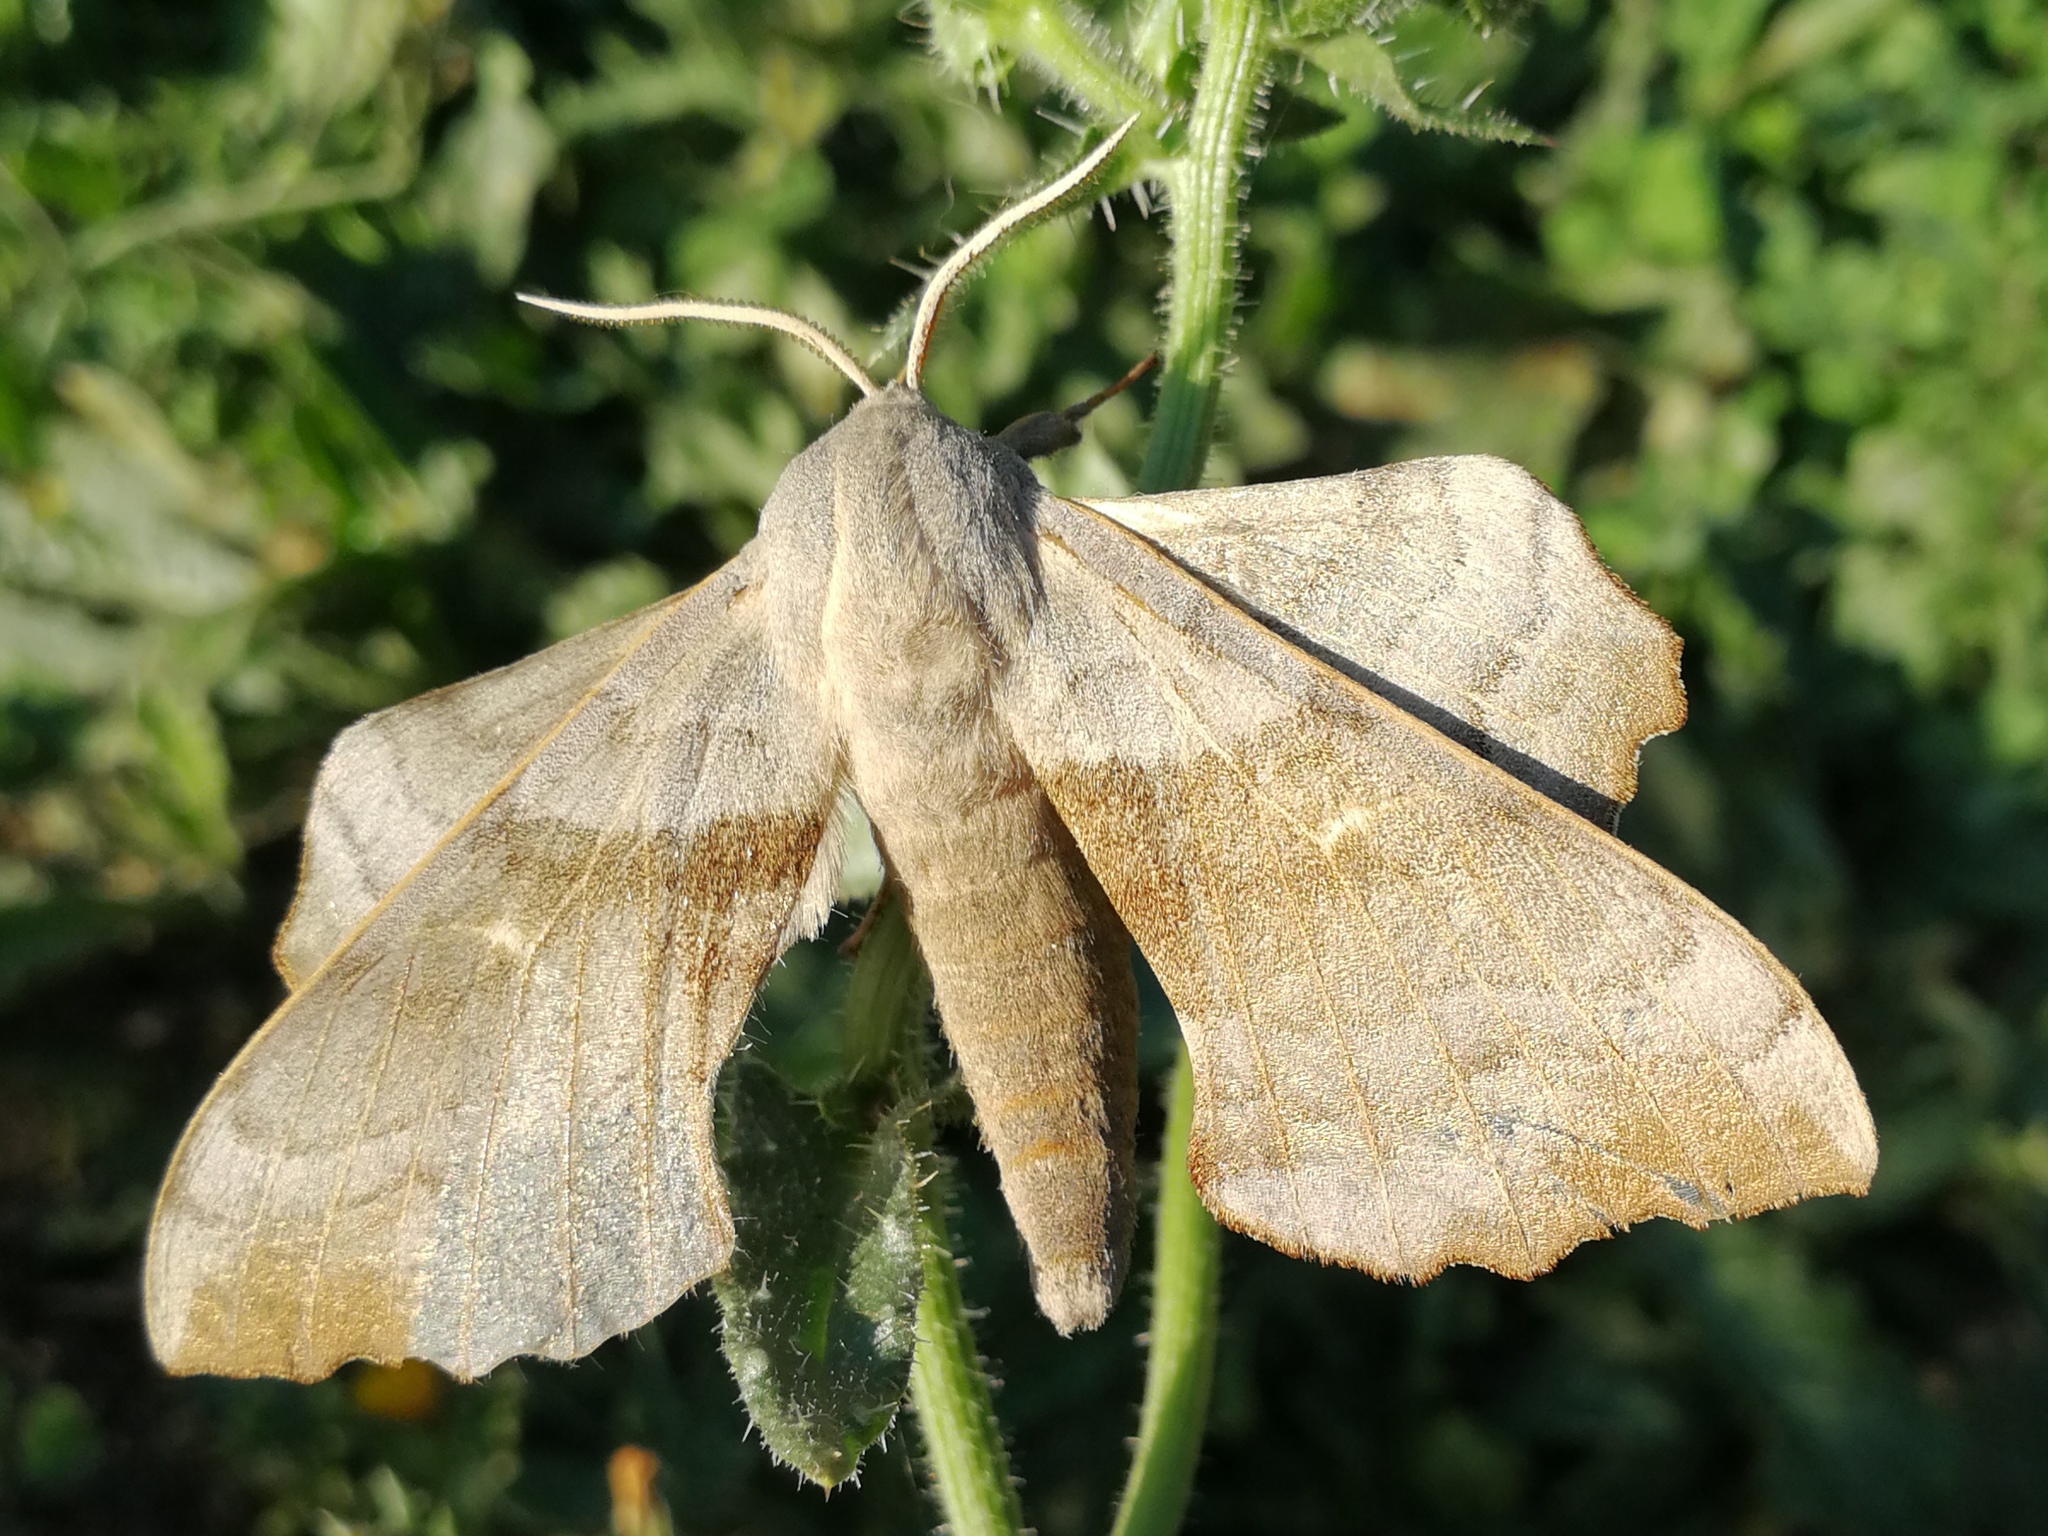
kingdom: Animalia
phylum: Arthropoda
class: Insecta
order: Lepidoptera
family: Sphingidae
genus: Laothoe
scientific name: Laothoe populi
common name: Poplar hawk-moth
